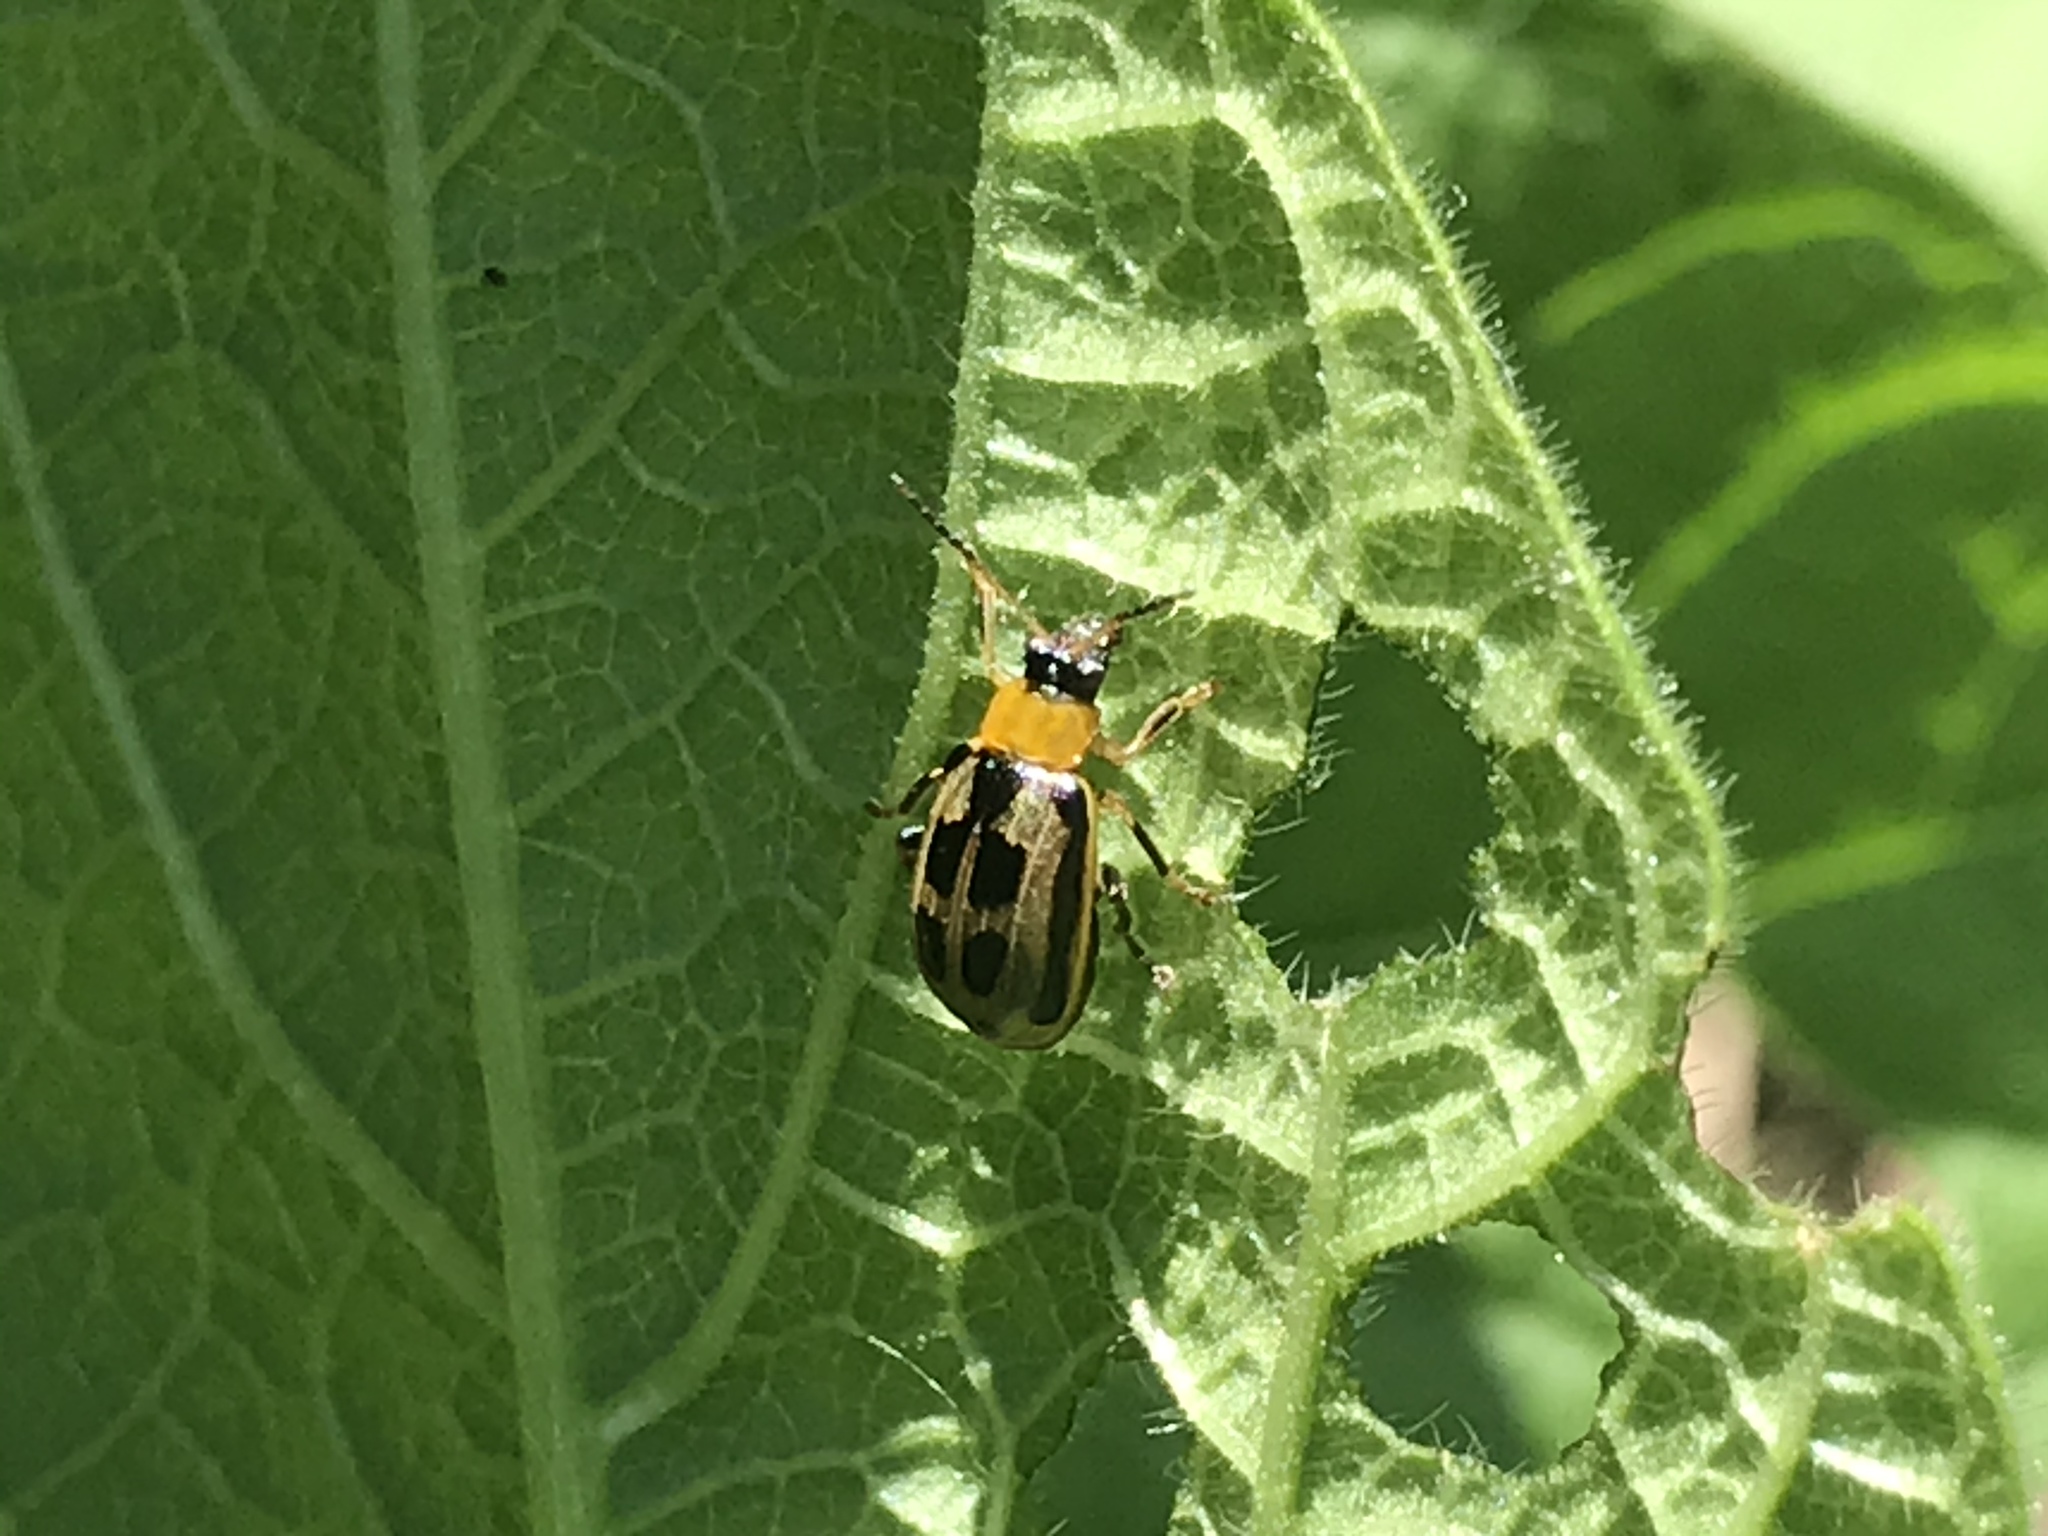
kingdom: Animalia
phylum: Arthropoda
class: Insecta
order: Coleoptera
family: Chrysomelidae
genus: Cerotoma
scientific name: Cerotoma trifurcata
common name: Bean leaf beetle
